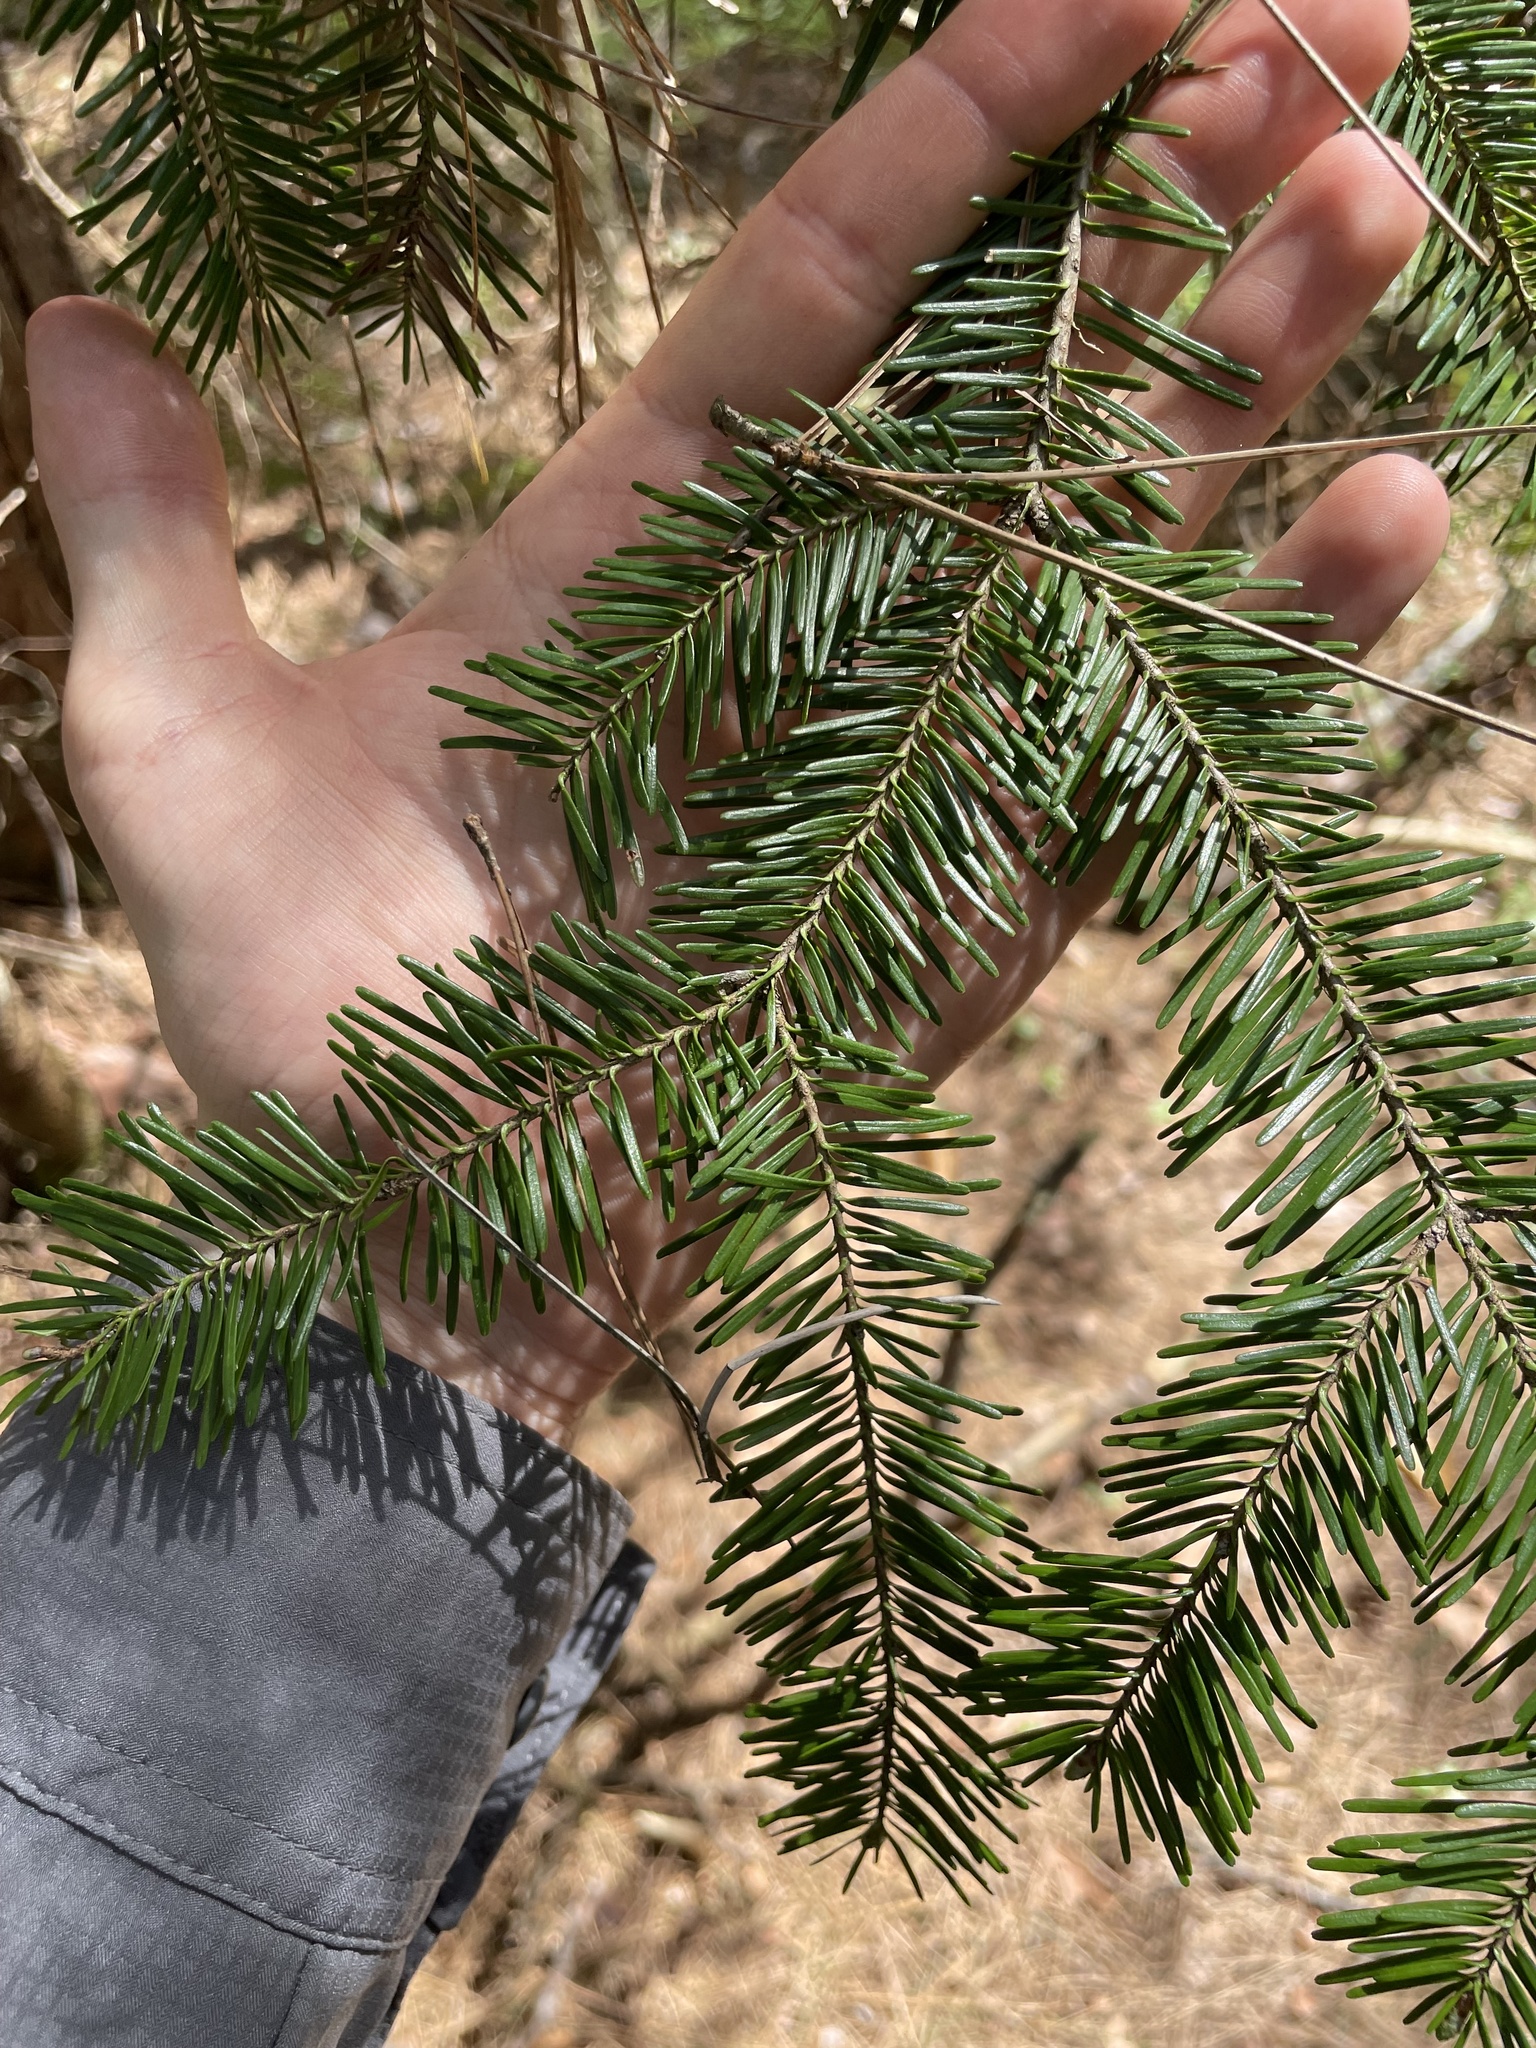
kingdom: Plantae
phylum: Tracheophyta
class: Pinopsida
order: Pinales
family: Pinaceae
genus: Abies
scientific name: Abies balsamea
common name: Balsam fir
